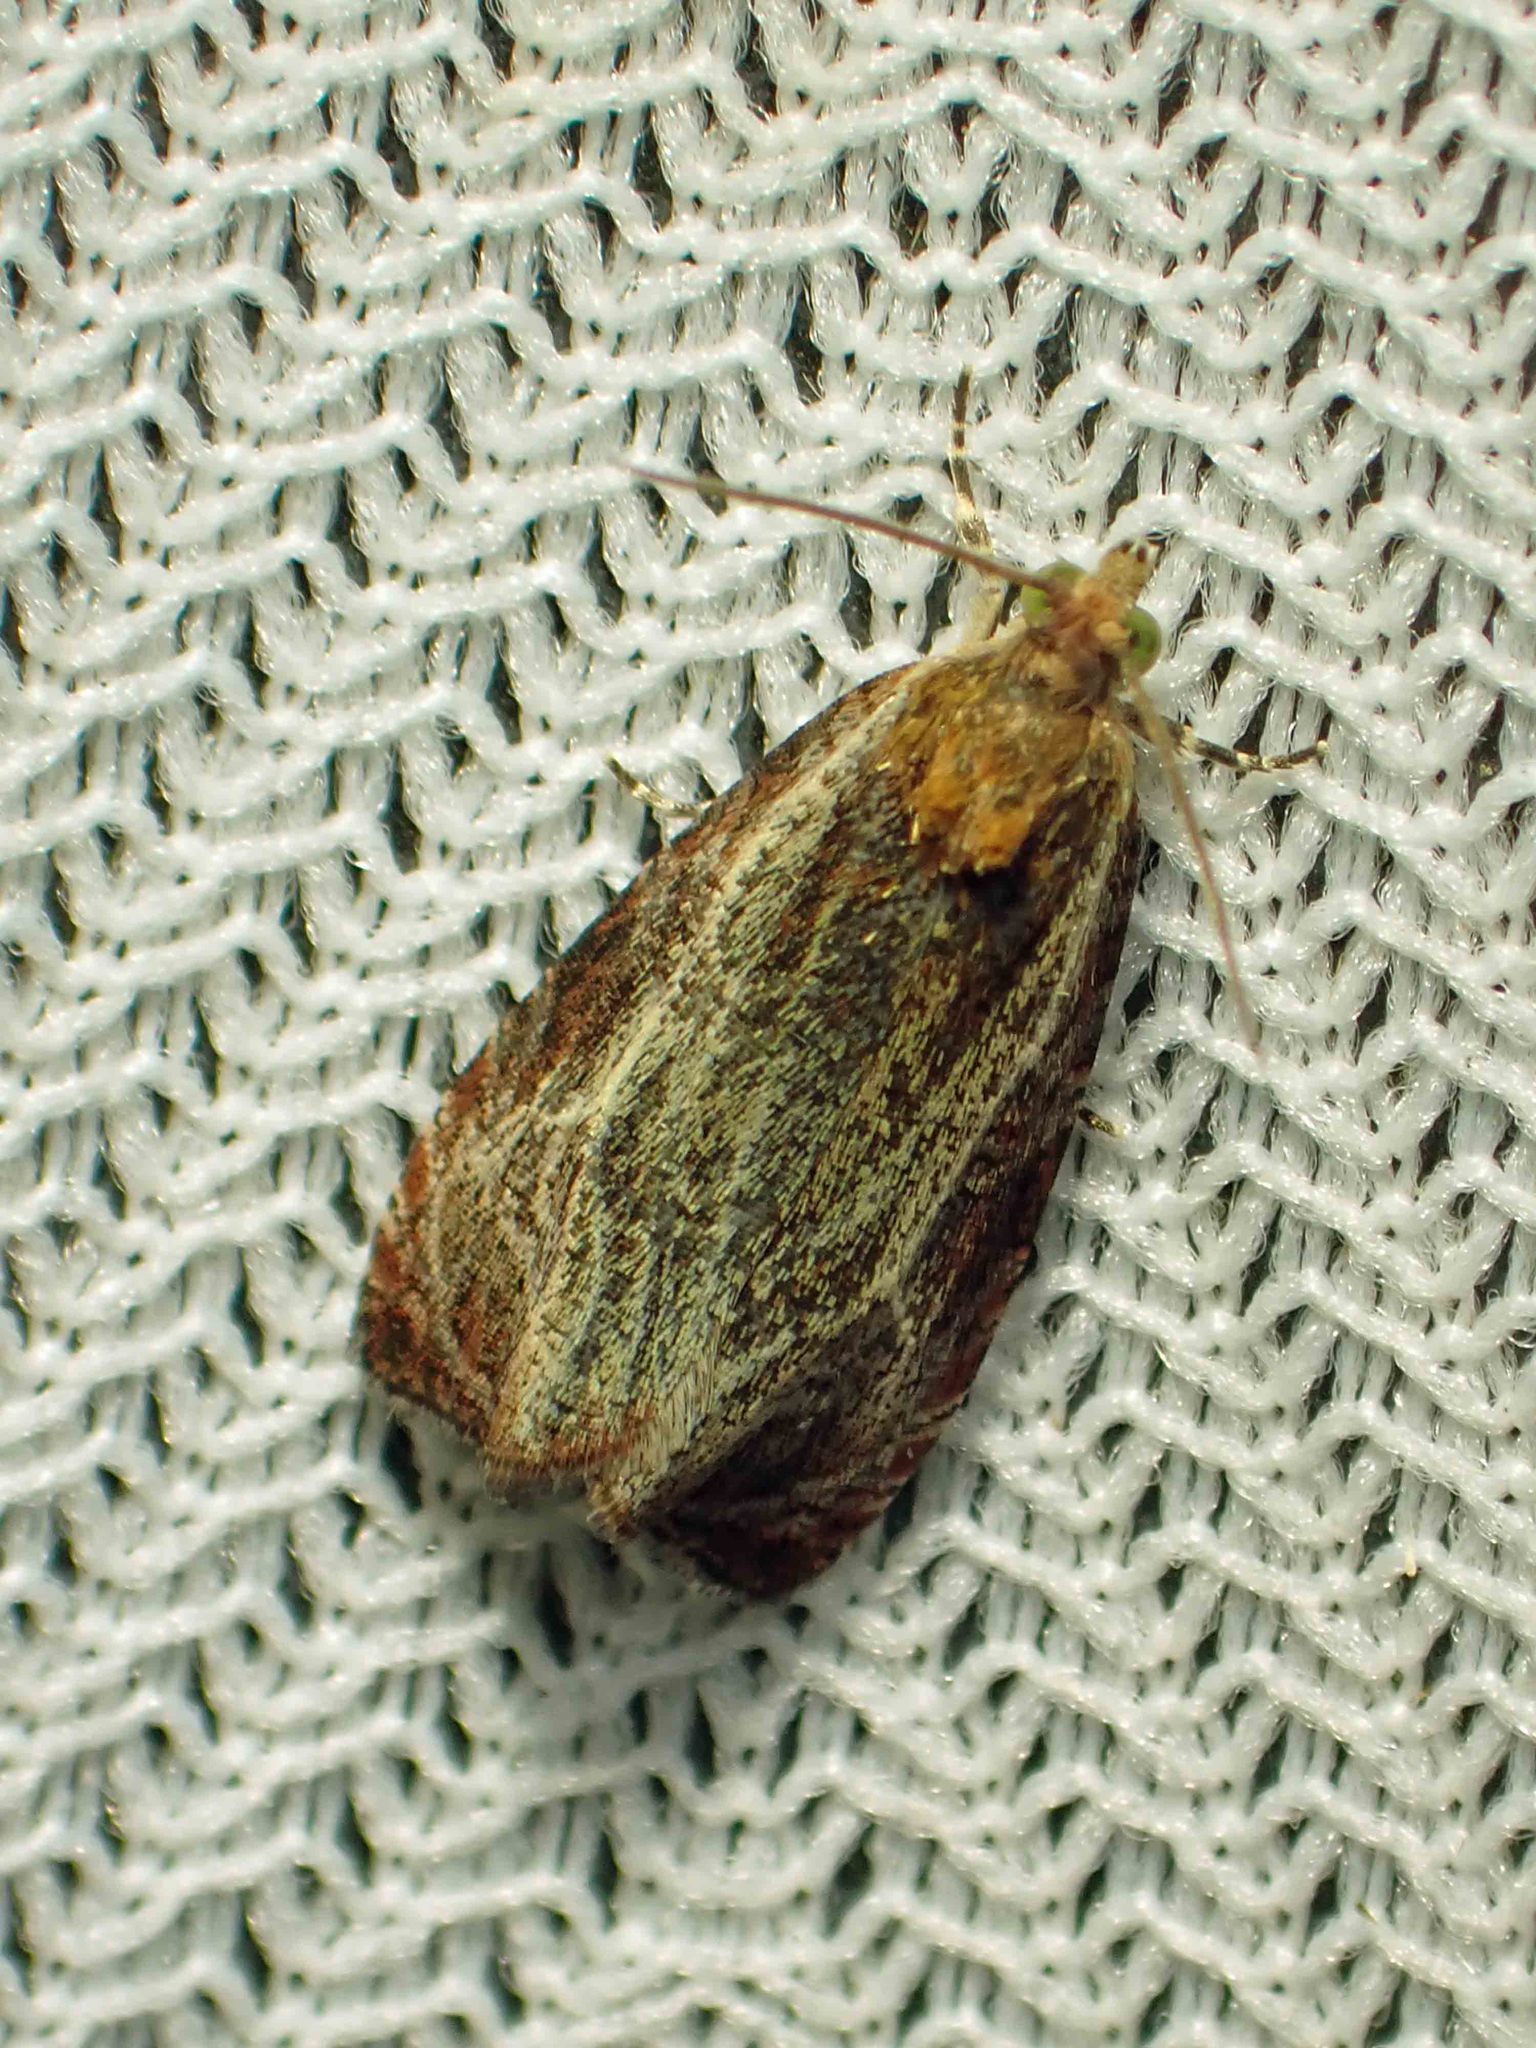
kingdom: Animalia
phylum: Arthropoda
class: Insecta
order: Lepidoptera
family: Tortricidae
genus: Olethreutes
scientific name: Olethreutes quadrifidum
